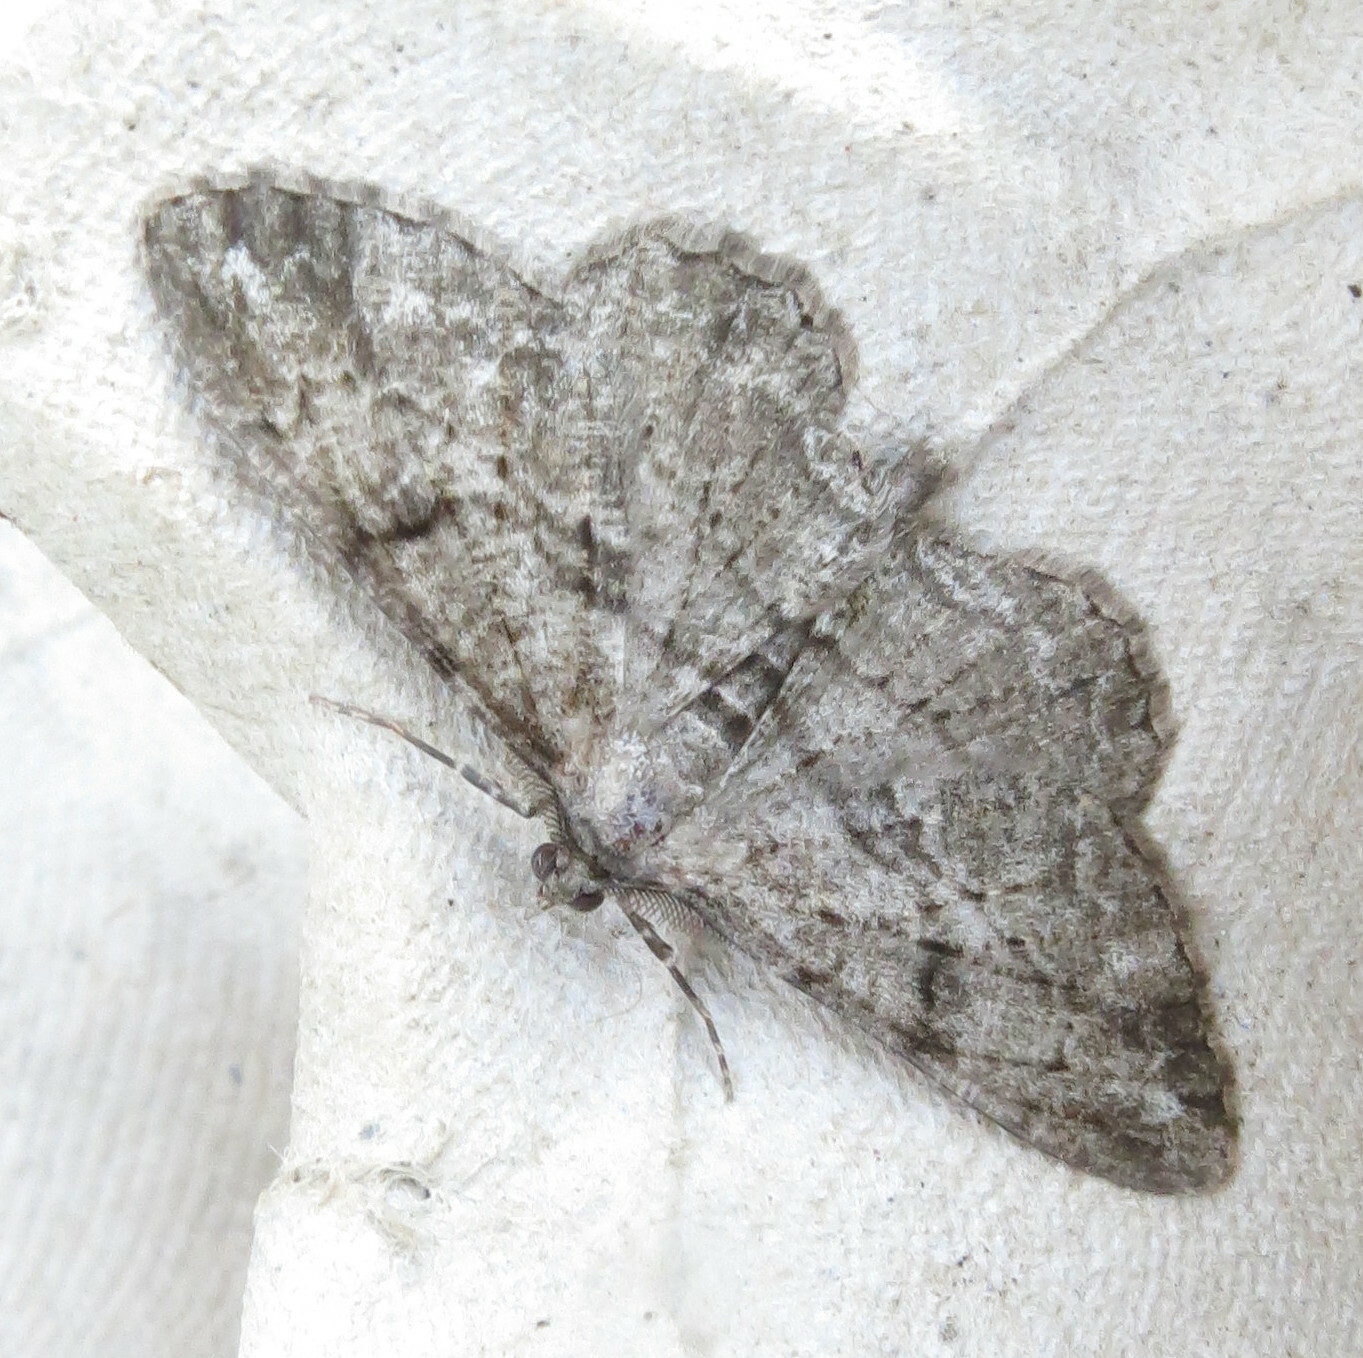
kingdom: Animalia
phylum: Arthropoda
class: Insecta
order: Lepidoptera
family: Geometridae
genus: Peribatodes
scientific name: Peribatodes rhomboidaria
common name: Willow beauty
